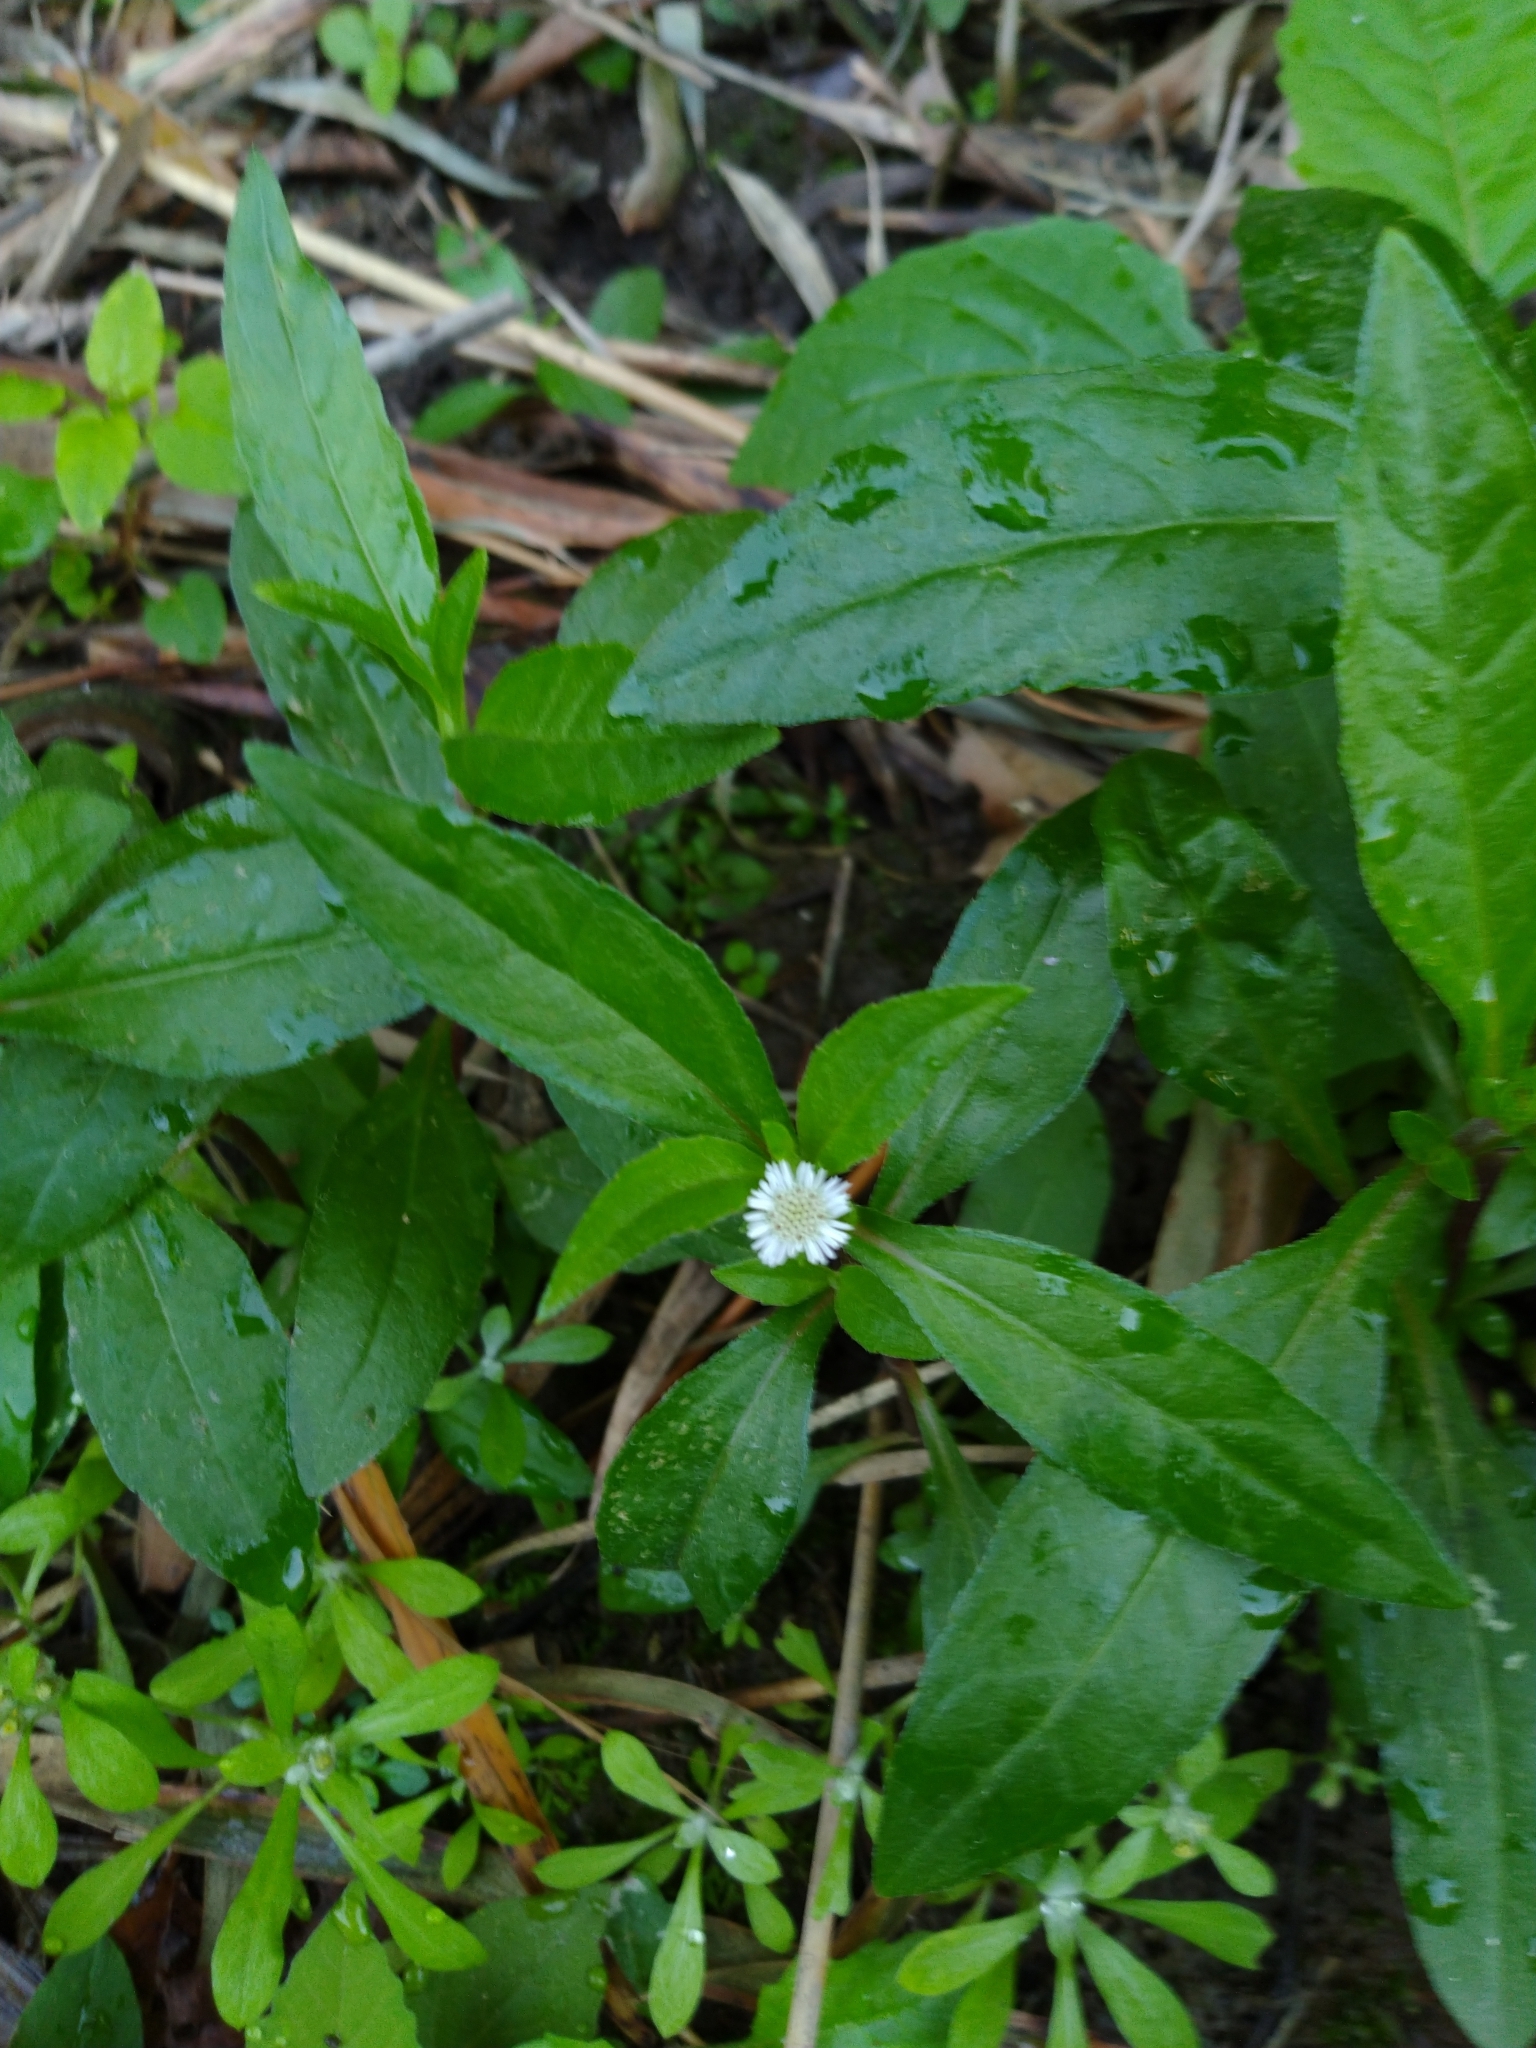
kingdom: Plantae
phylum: Tracheophyta
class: Magnoliopsida
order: Asterales
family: Asteraceae
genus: Eclipta
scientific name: Eclipta prostrata
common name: False daisy
